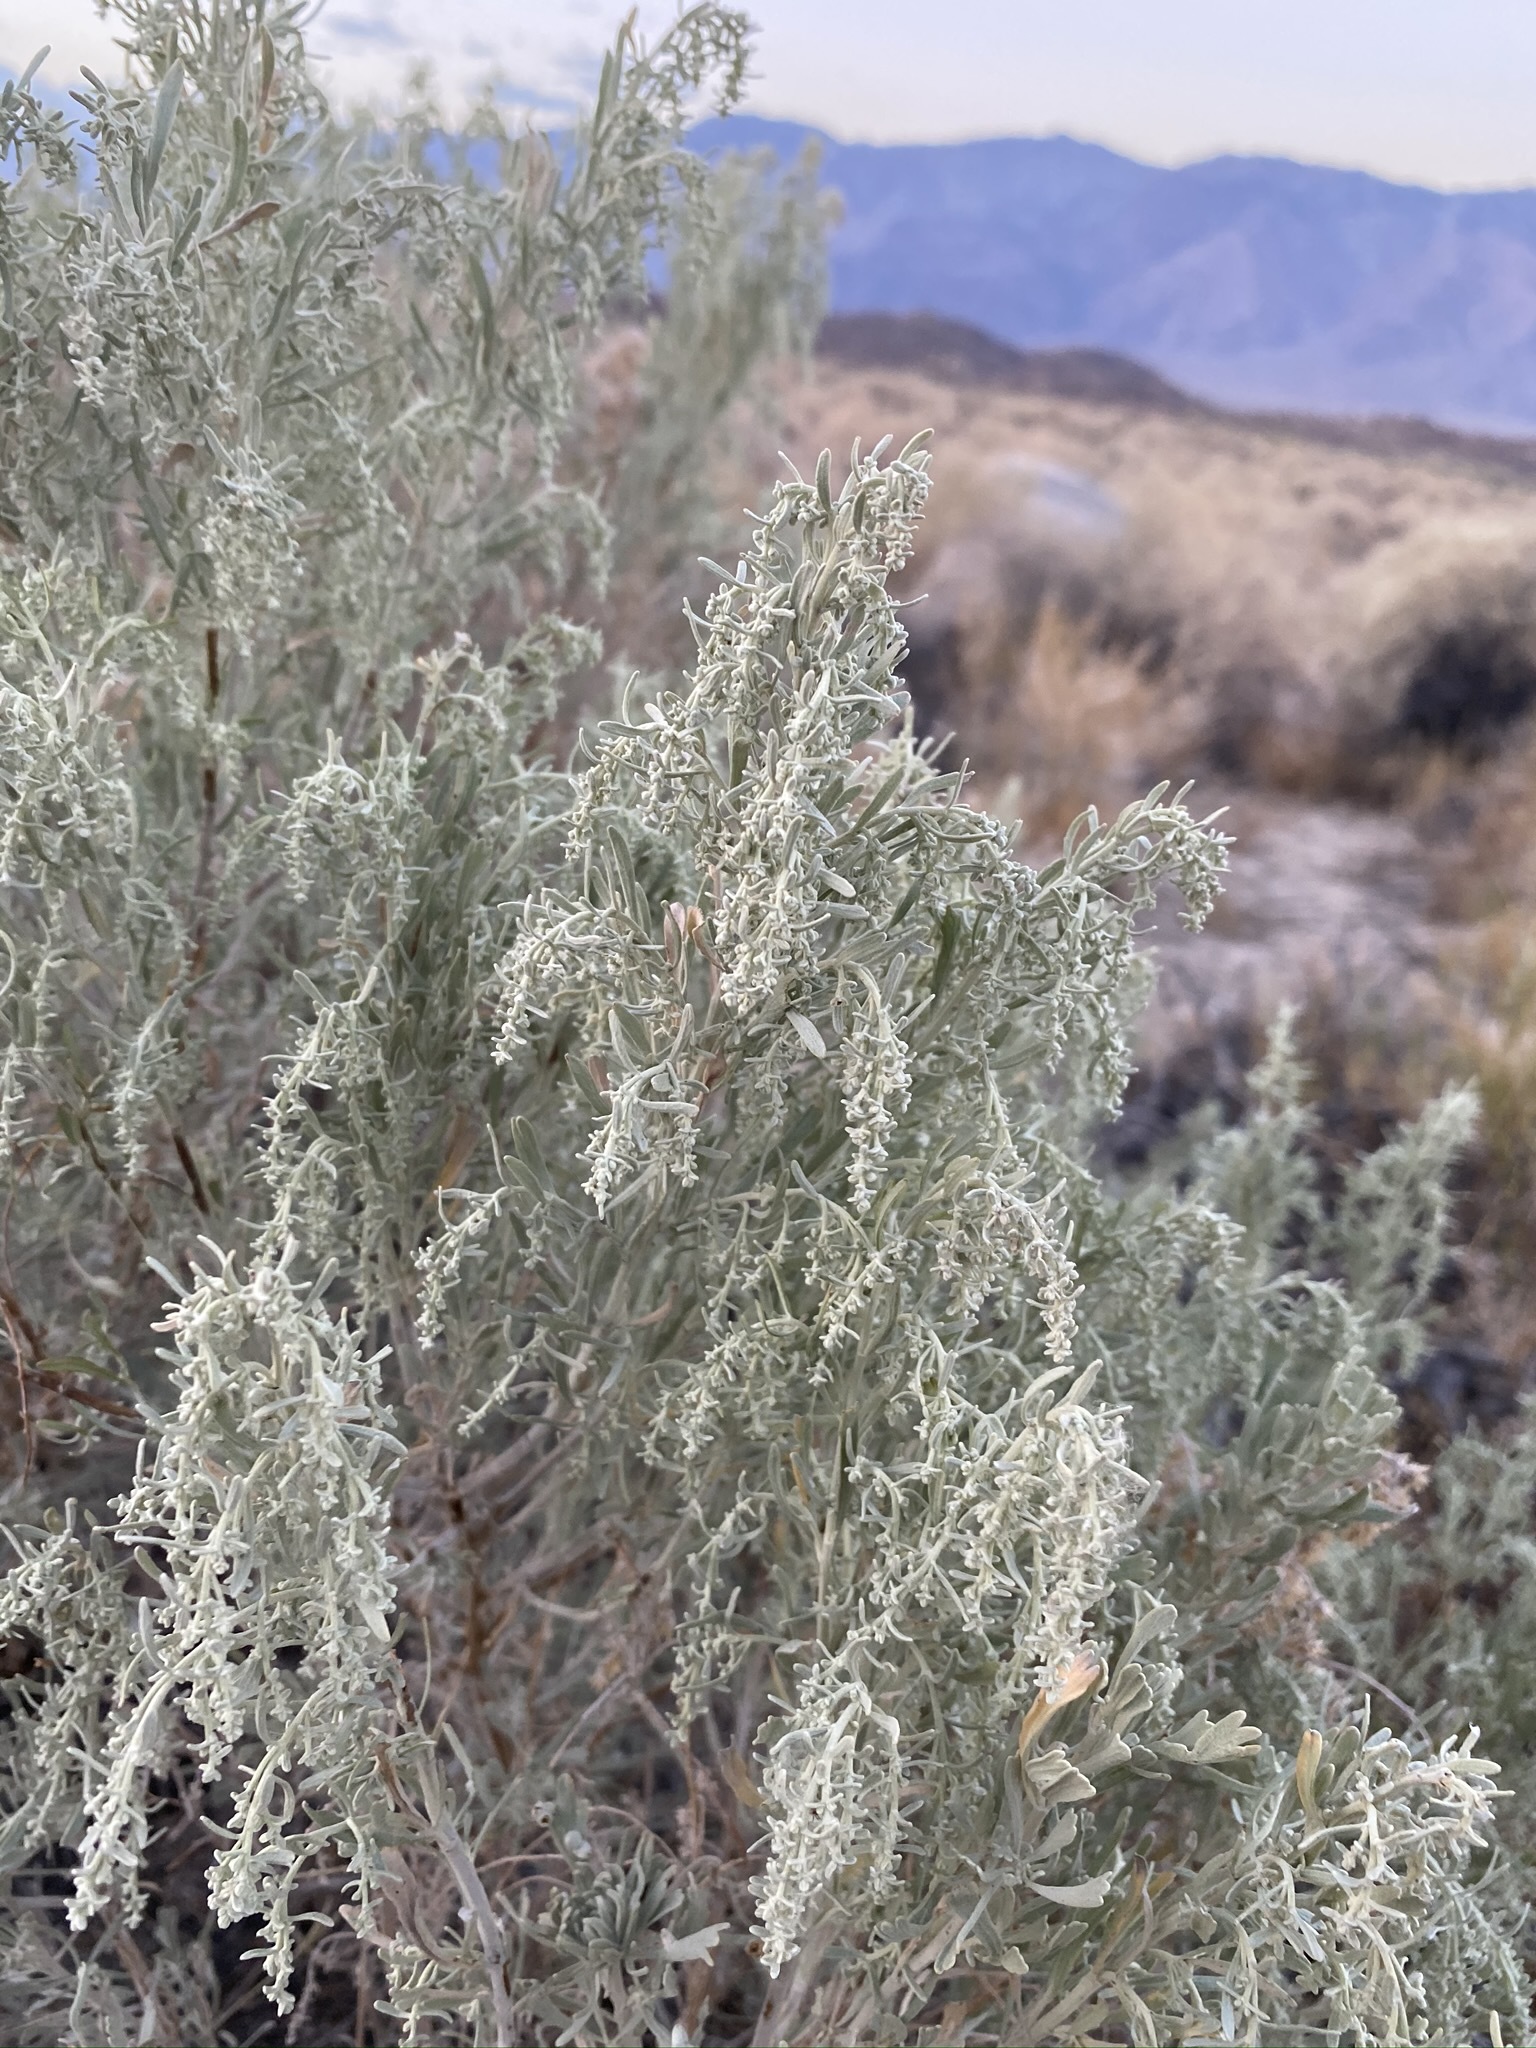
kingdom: Plantae
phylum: Tracheophyta
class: Magnoliopsida
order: Asterales
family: Asteraceae
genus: Artemisia
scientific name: Artemisia tridentata
